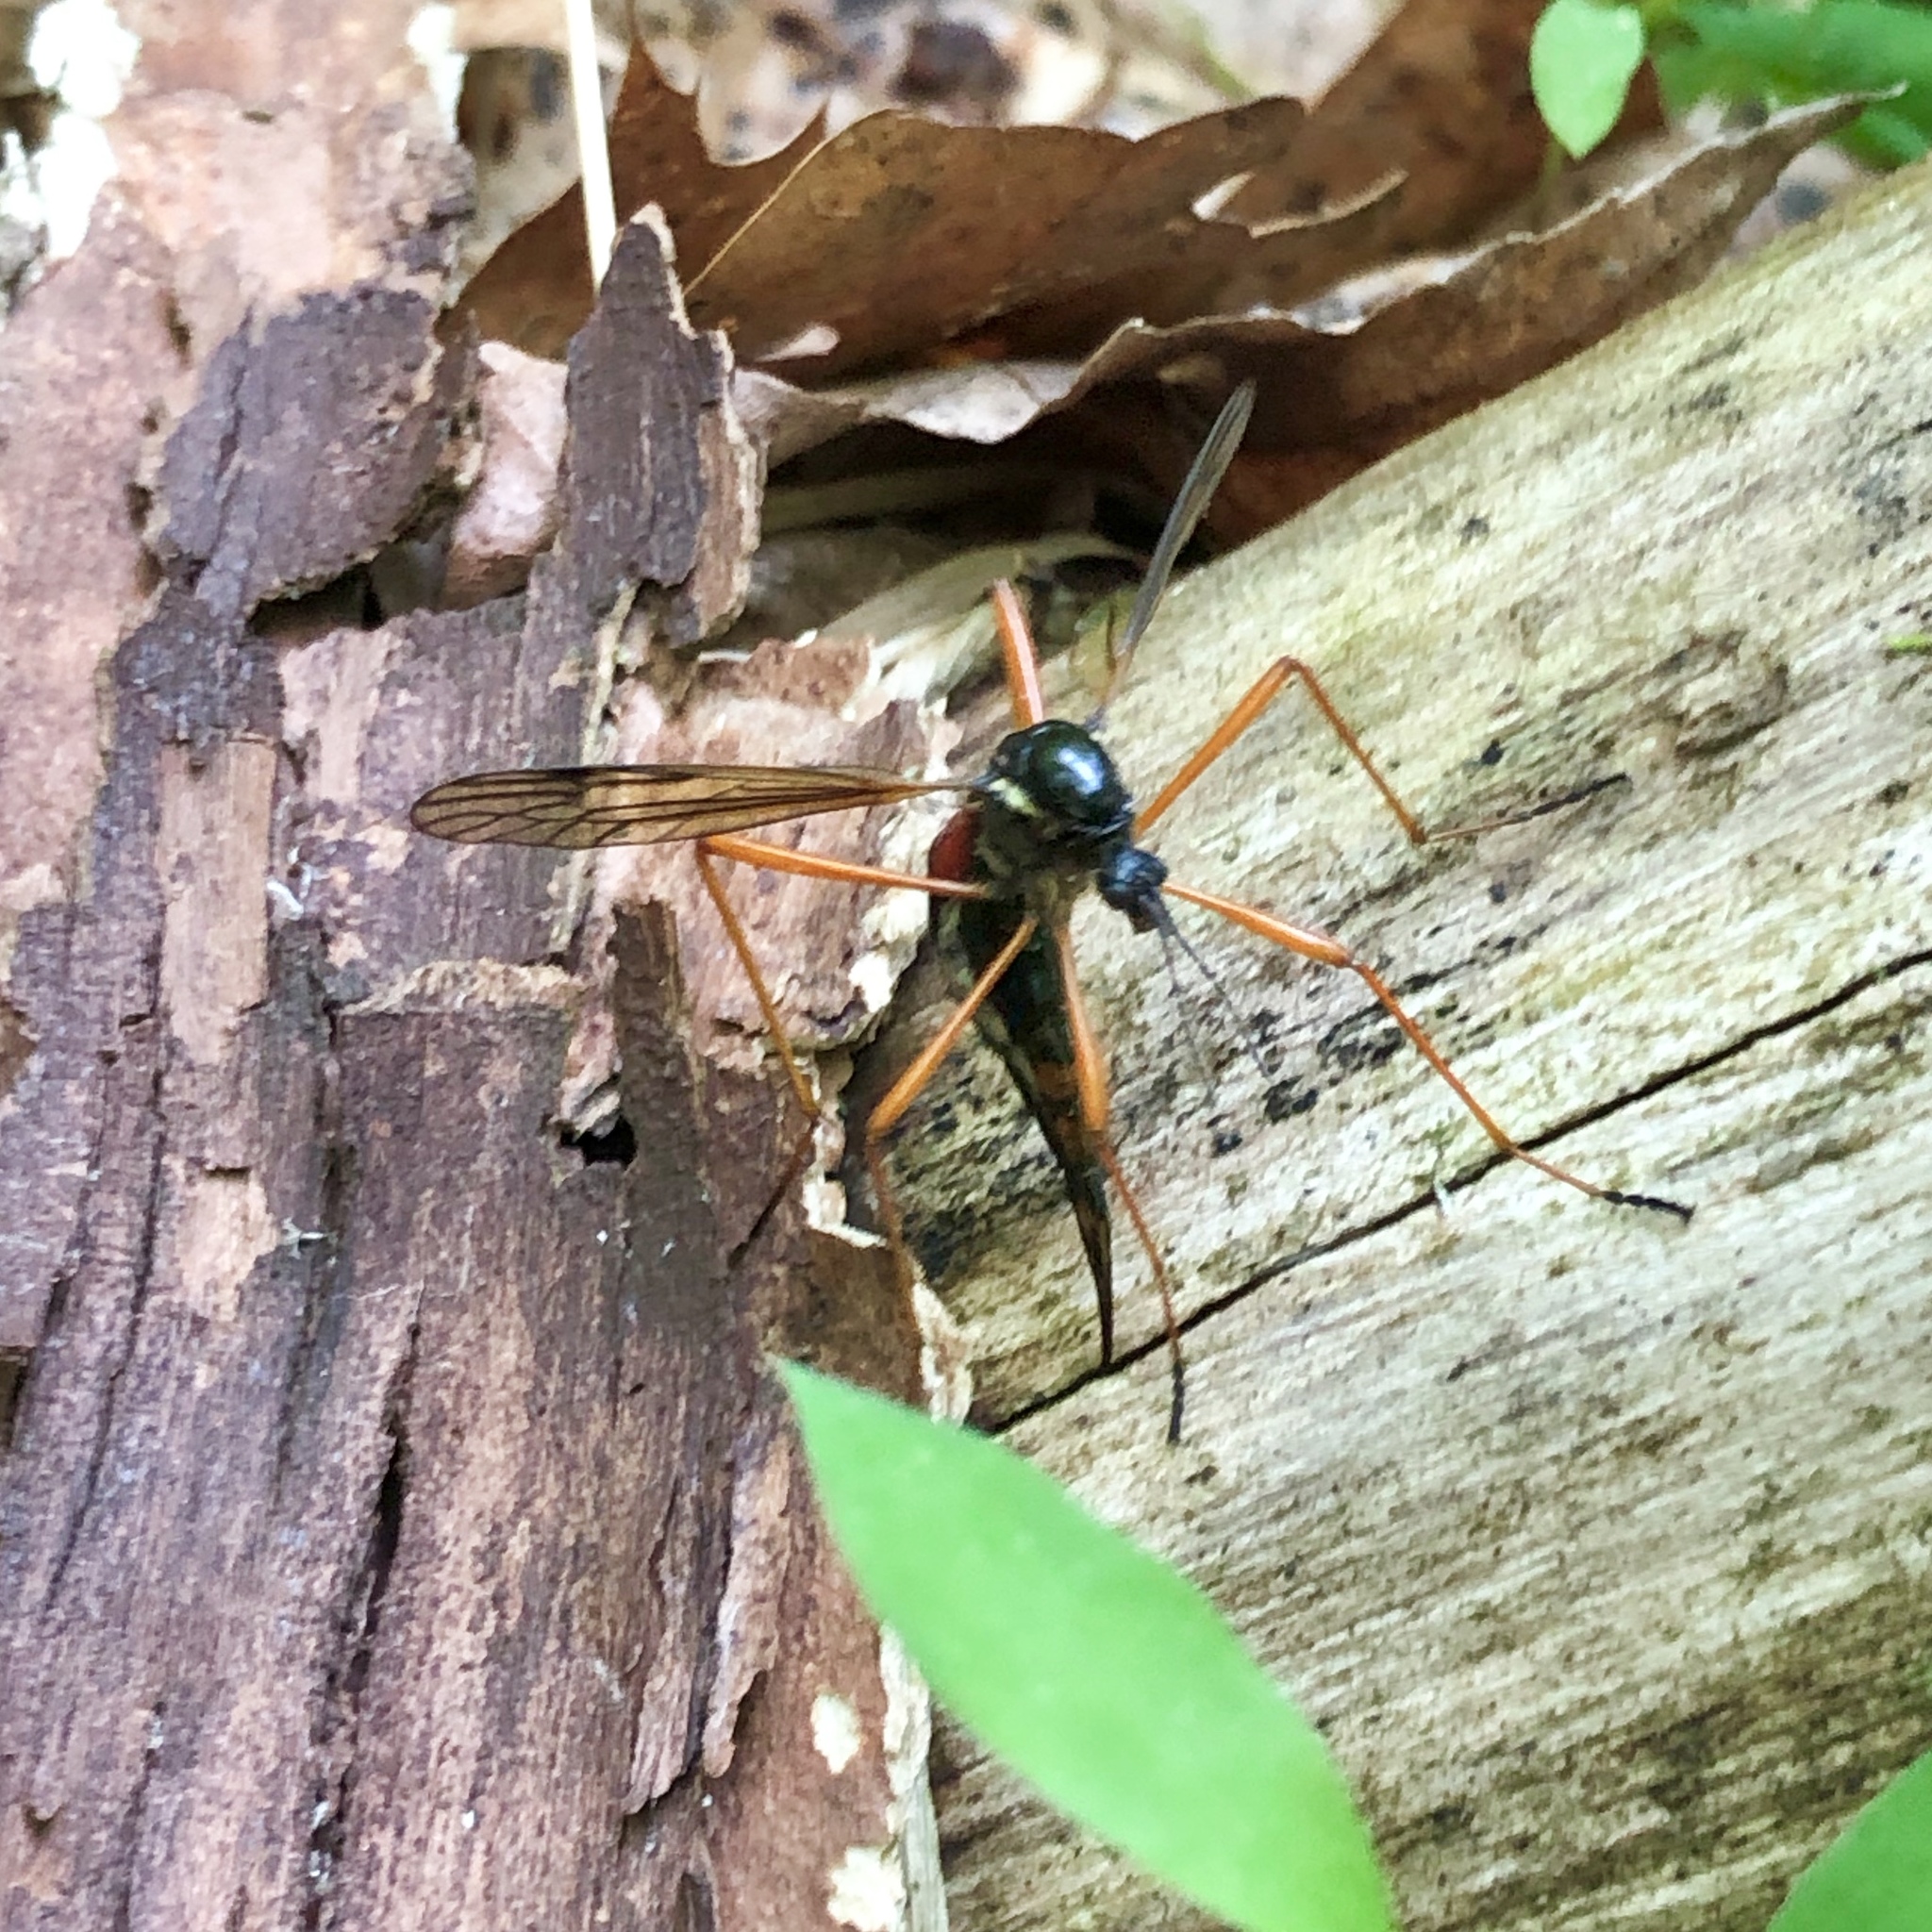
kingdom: Animalia
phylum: Arthropoda
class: Insecta
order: Diptera
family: Tipulidae
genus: Tanyptera
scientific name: Tanyptera dorsalis
